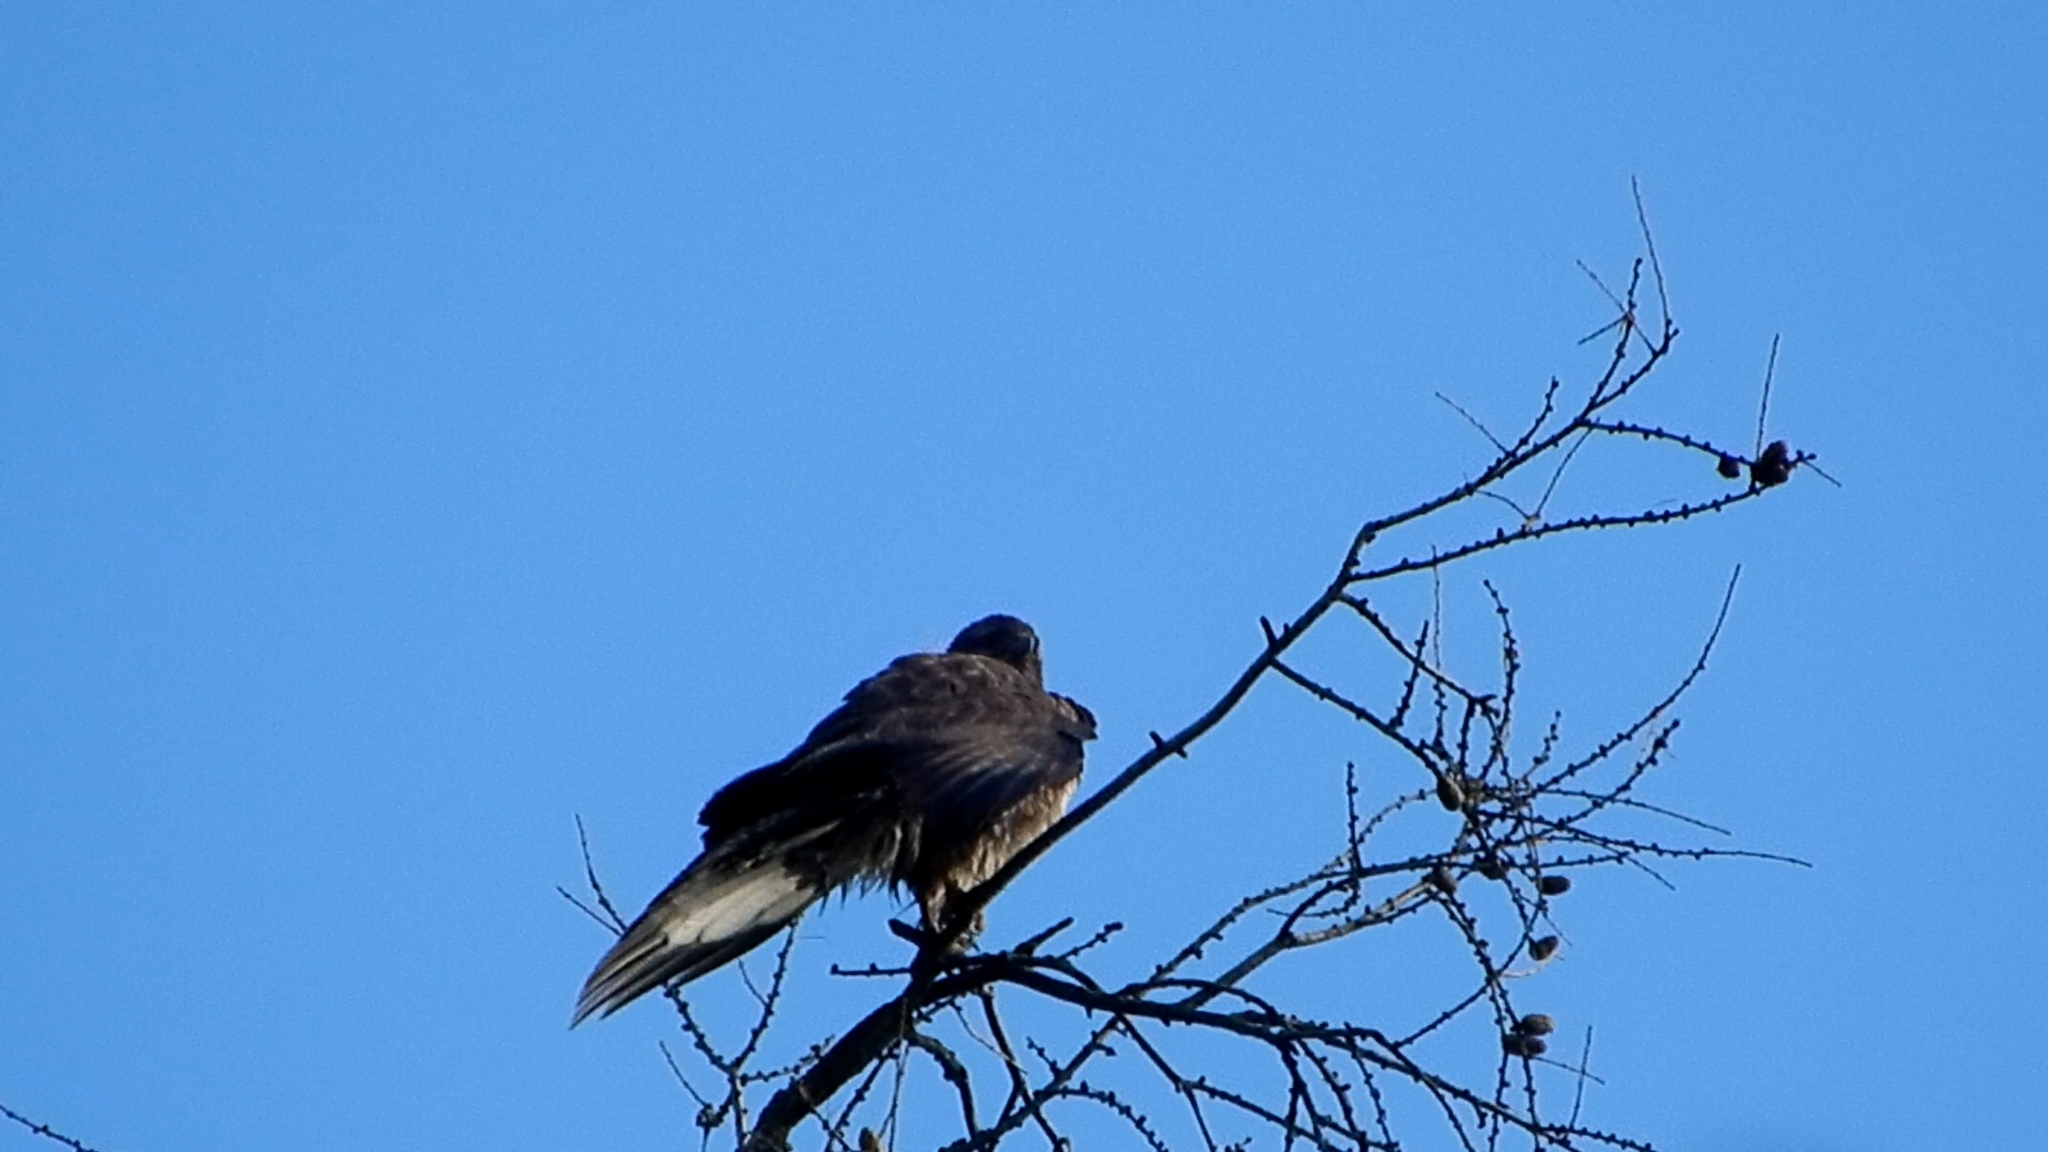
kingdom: Animalia
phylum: Chordata
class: Aves
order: Accipitriformes
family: Accipitridae
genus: Buteo
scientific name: Buteo buteo
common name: Common buzzard
